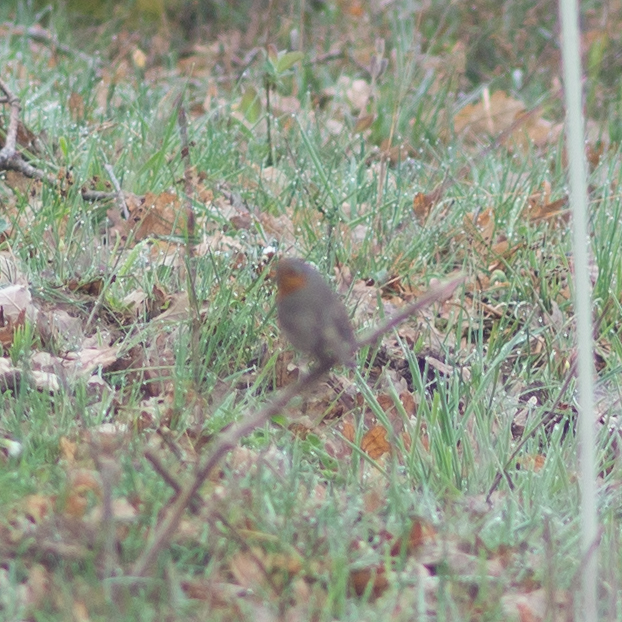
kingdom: Animalia
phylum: Chordata
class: Aves
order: Passeriformes
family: Muscicapidae
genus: Erithacus
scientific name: Erithacus rubecula
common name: European robin
